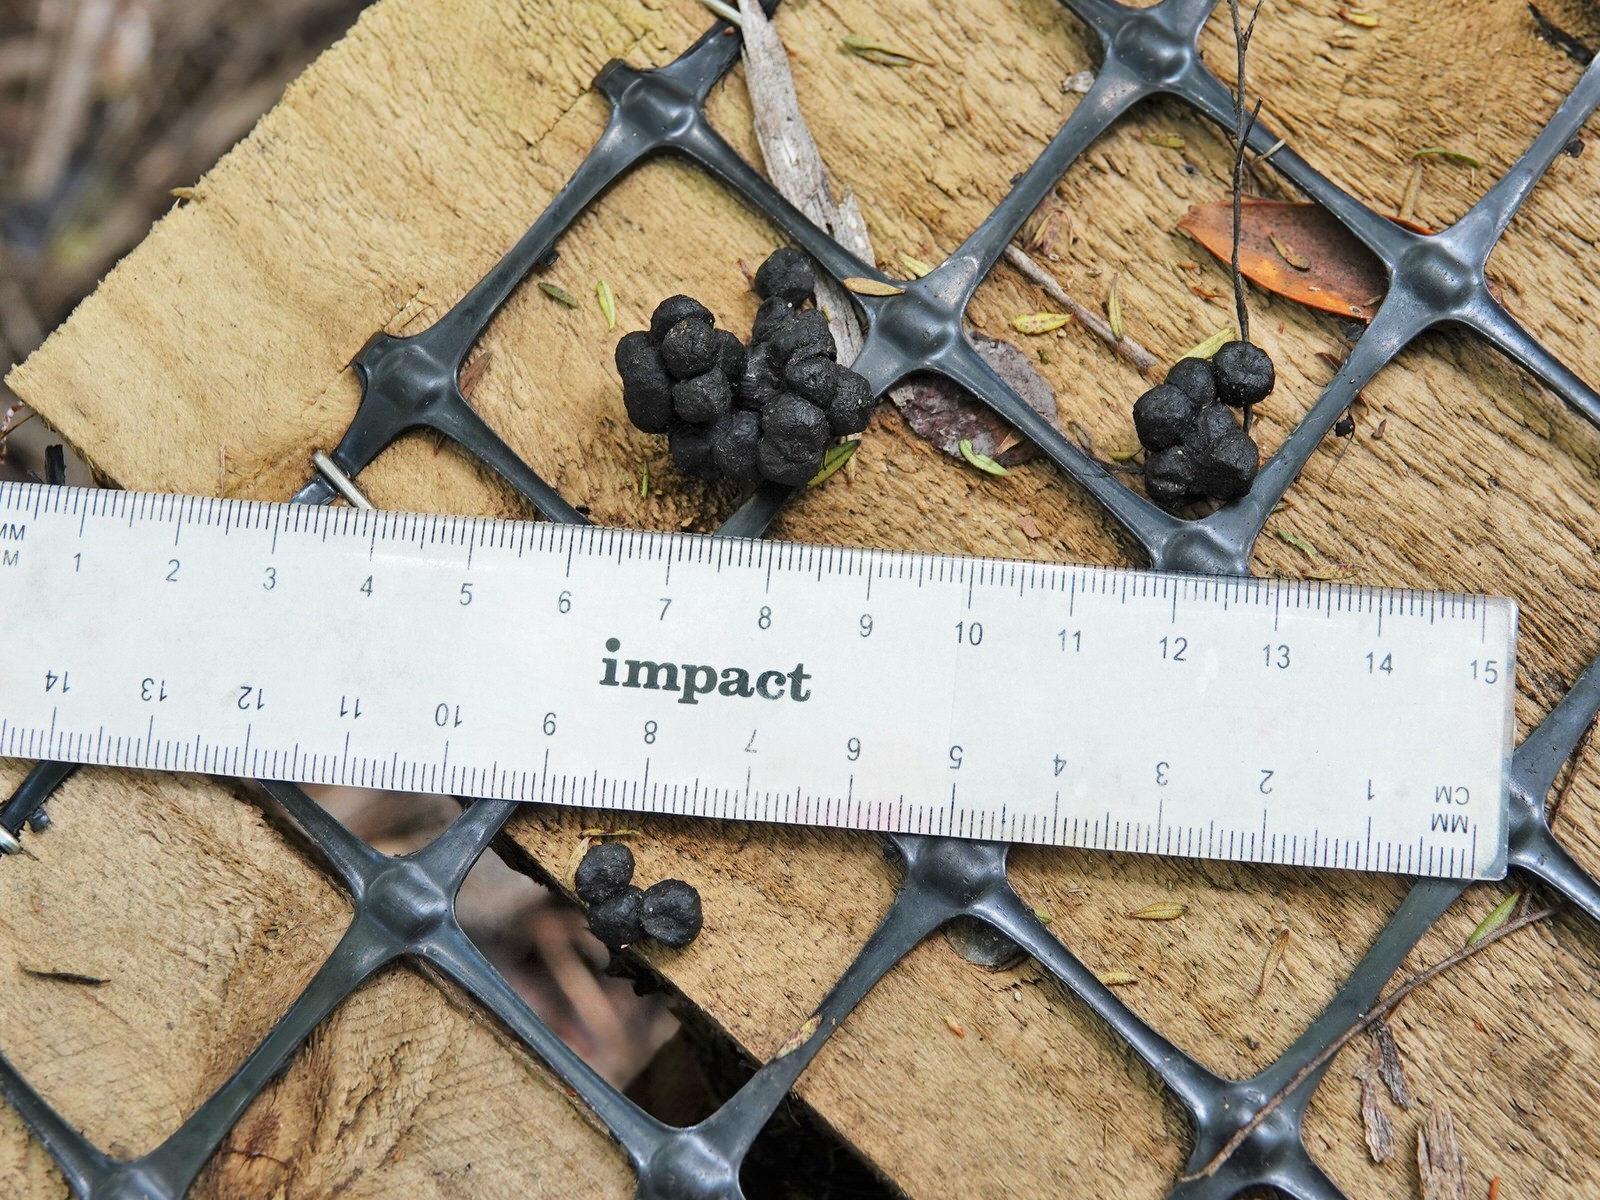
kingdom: Animalia
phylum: Chordata
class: Mammalia
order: Artiodactyla
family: Bovidae
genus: Capra
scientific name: Capra hircus
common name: Domestic goat
